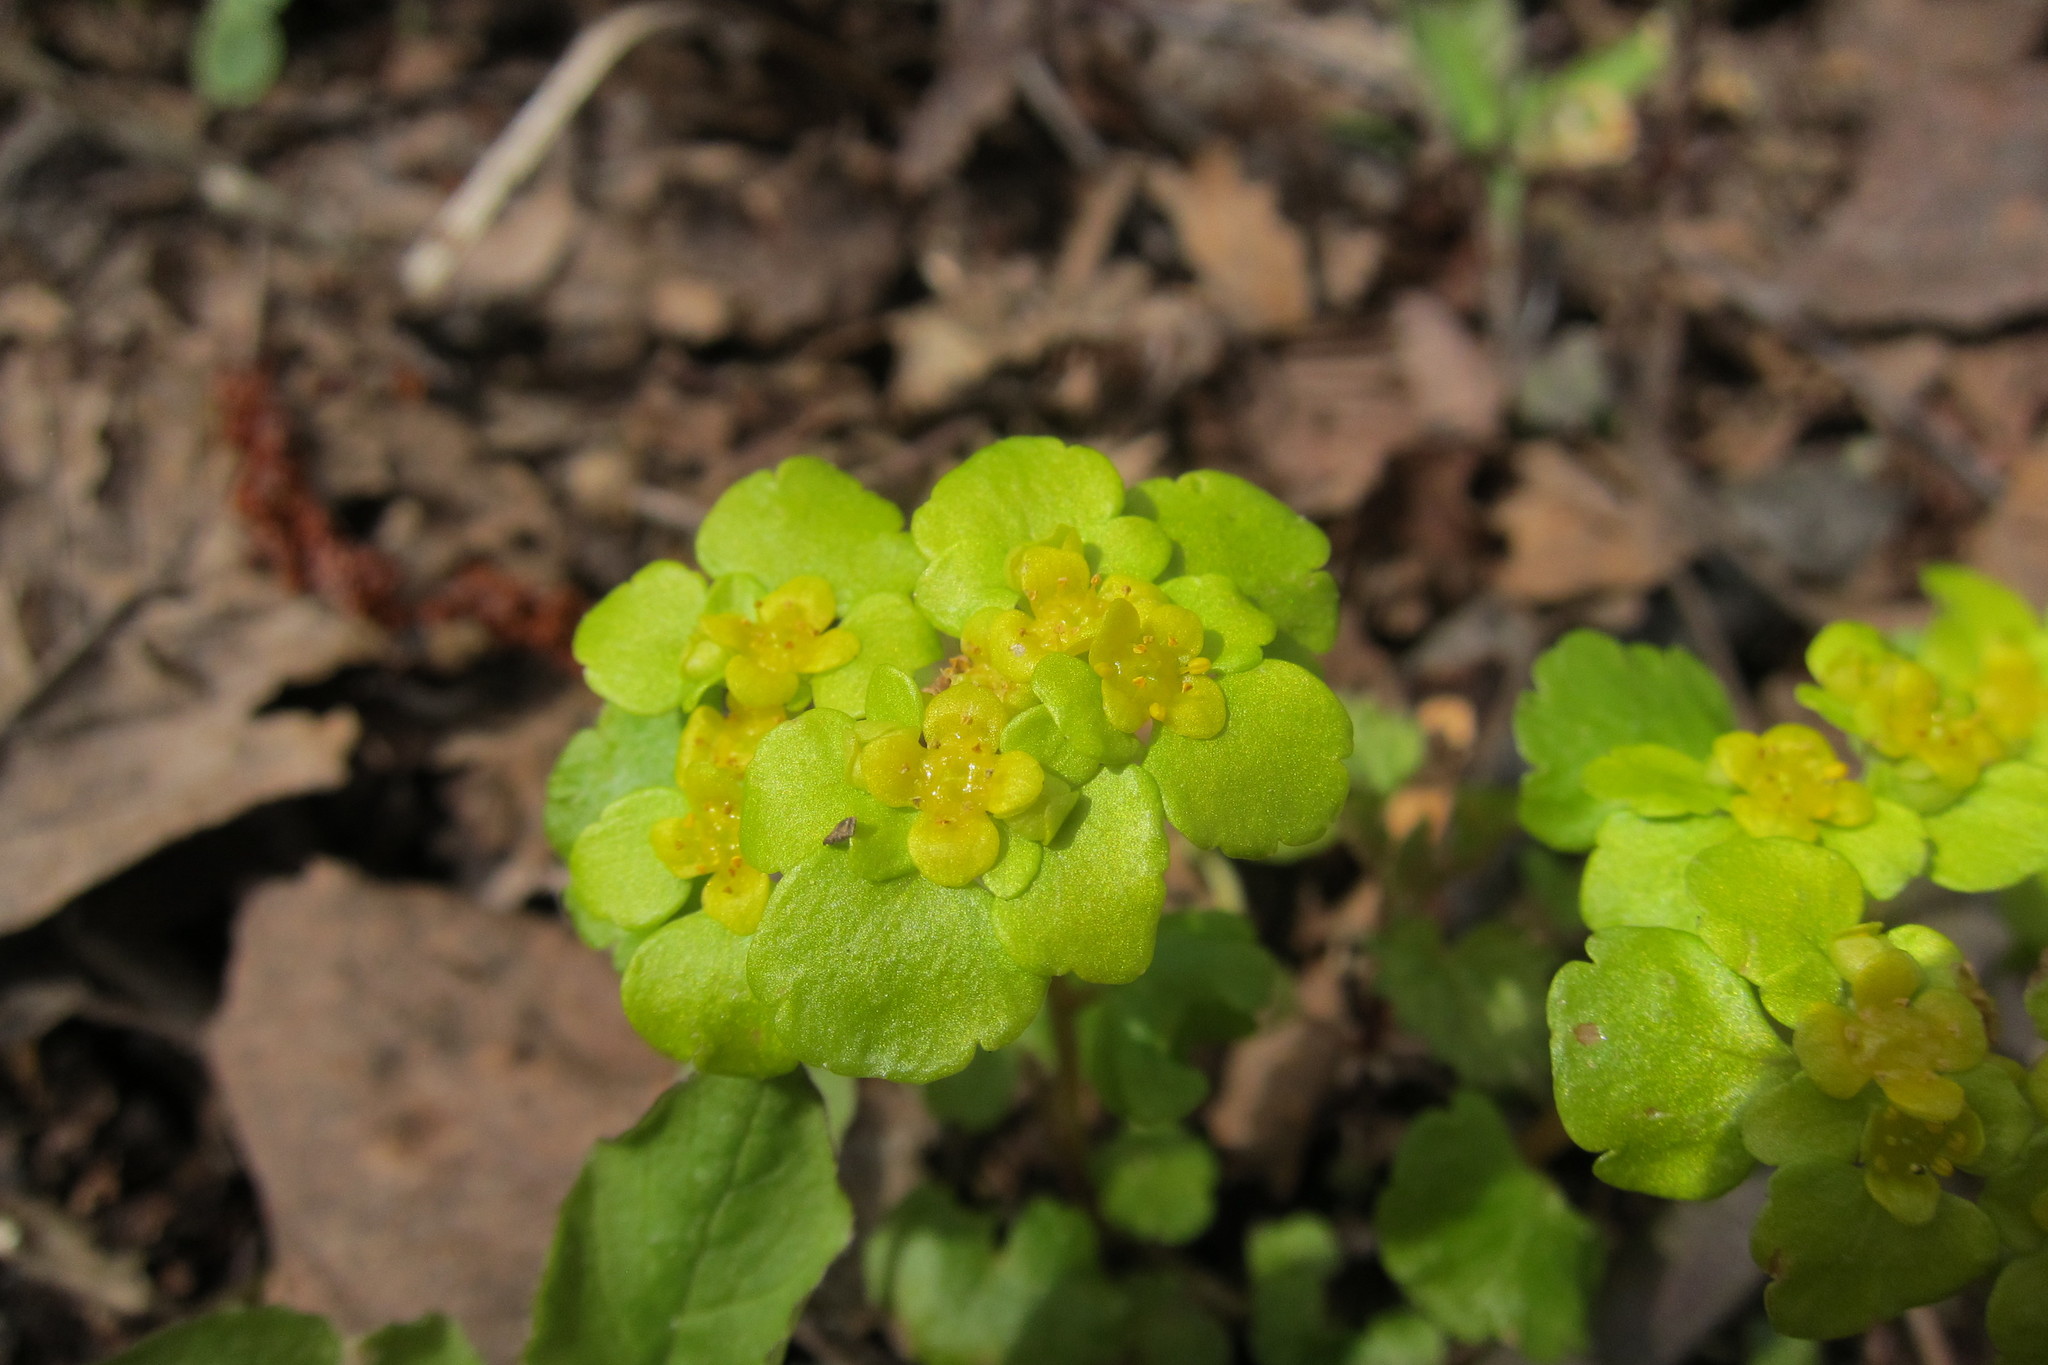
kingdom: Plantae
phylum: Tracheophyta
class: Magnoliopsida
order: Saxifragales
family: Saxifragaceae
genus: Chrysosplenium
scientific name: Chrysosplenium alternifolium
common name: Alternate-leaved golden-saxifrage
